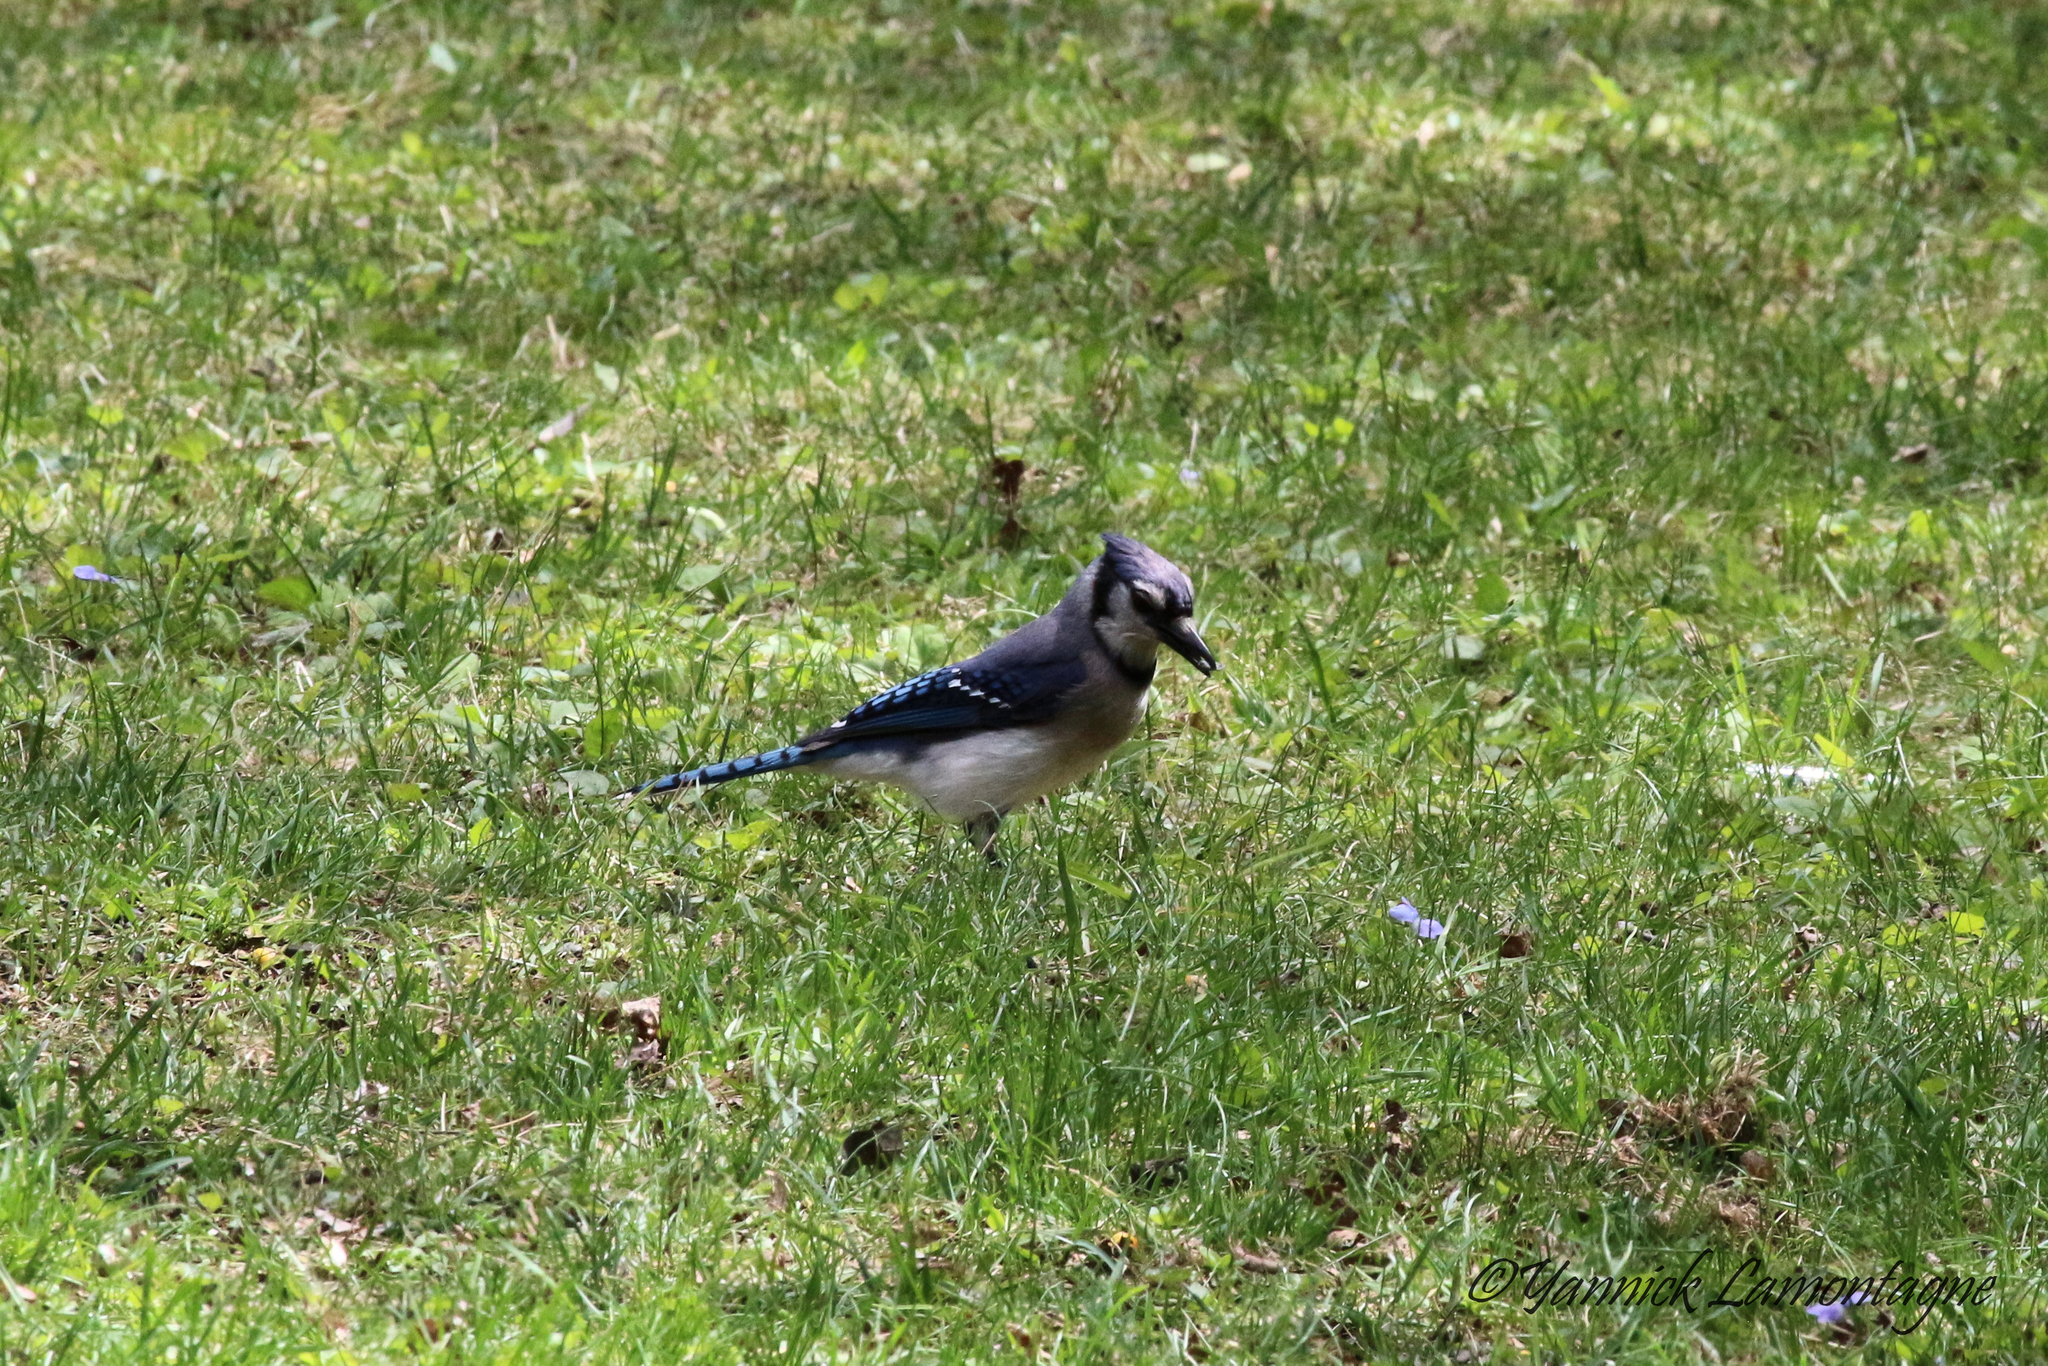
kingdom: Animalia
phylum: Chordata
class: Aves
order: Passeriformes
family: Corvidae
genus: Cyanocitta
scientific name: Cyanocitta cristata
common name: Blue jay
